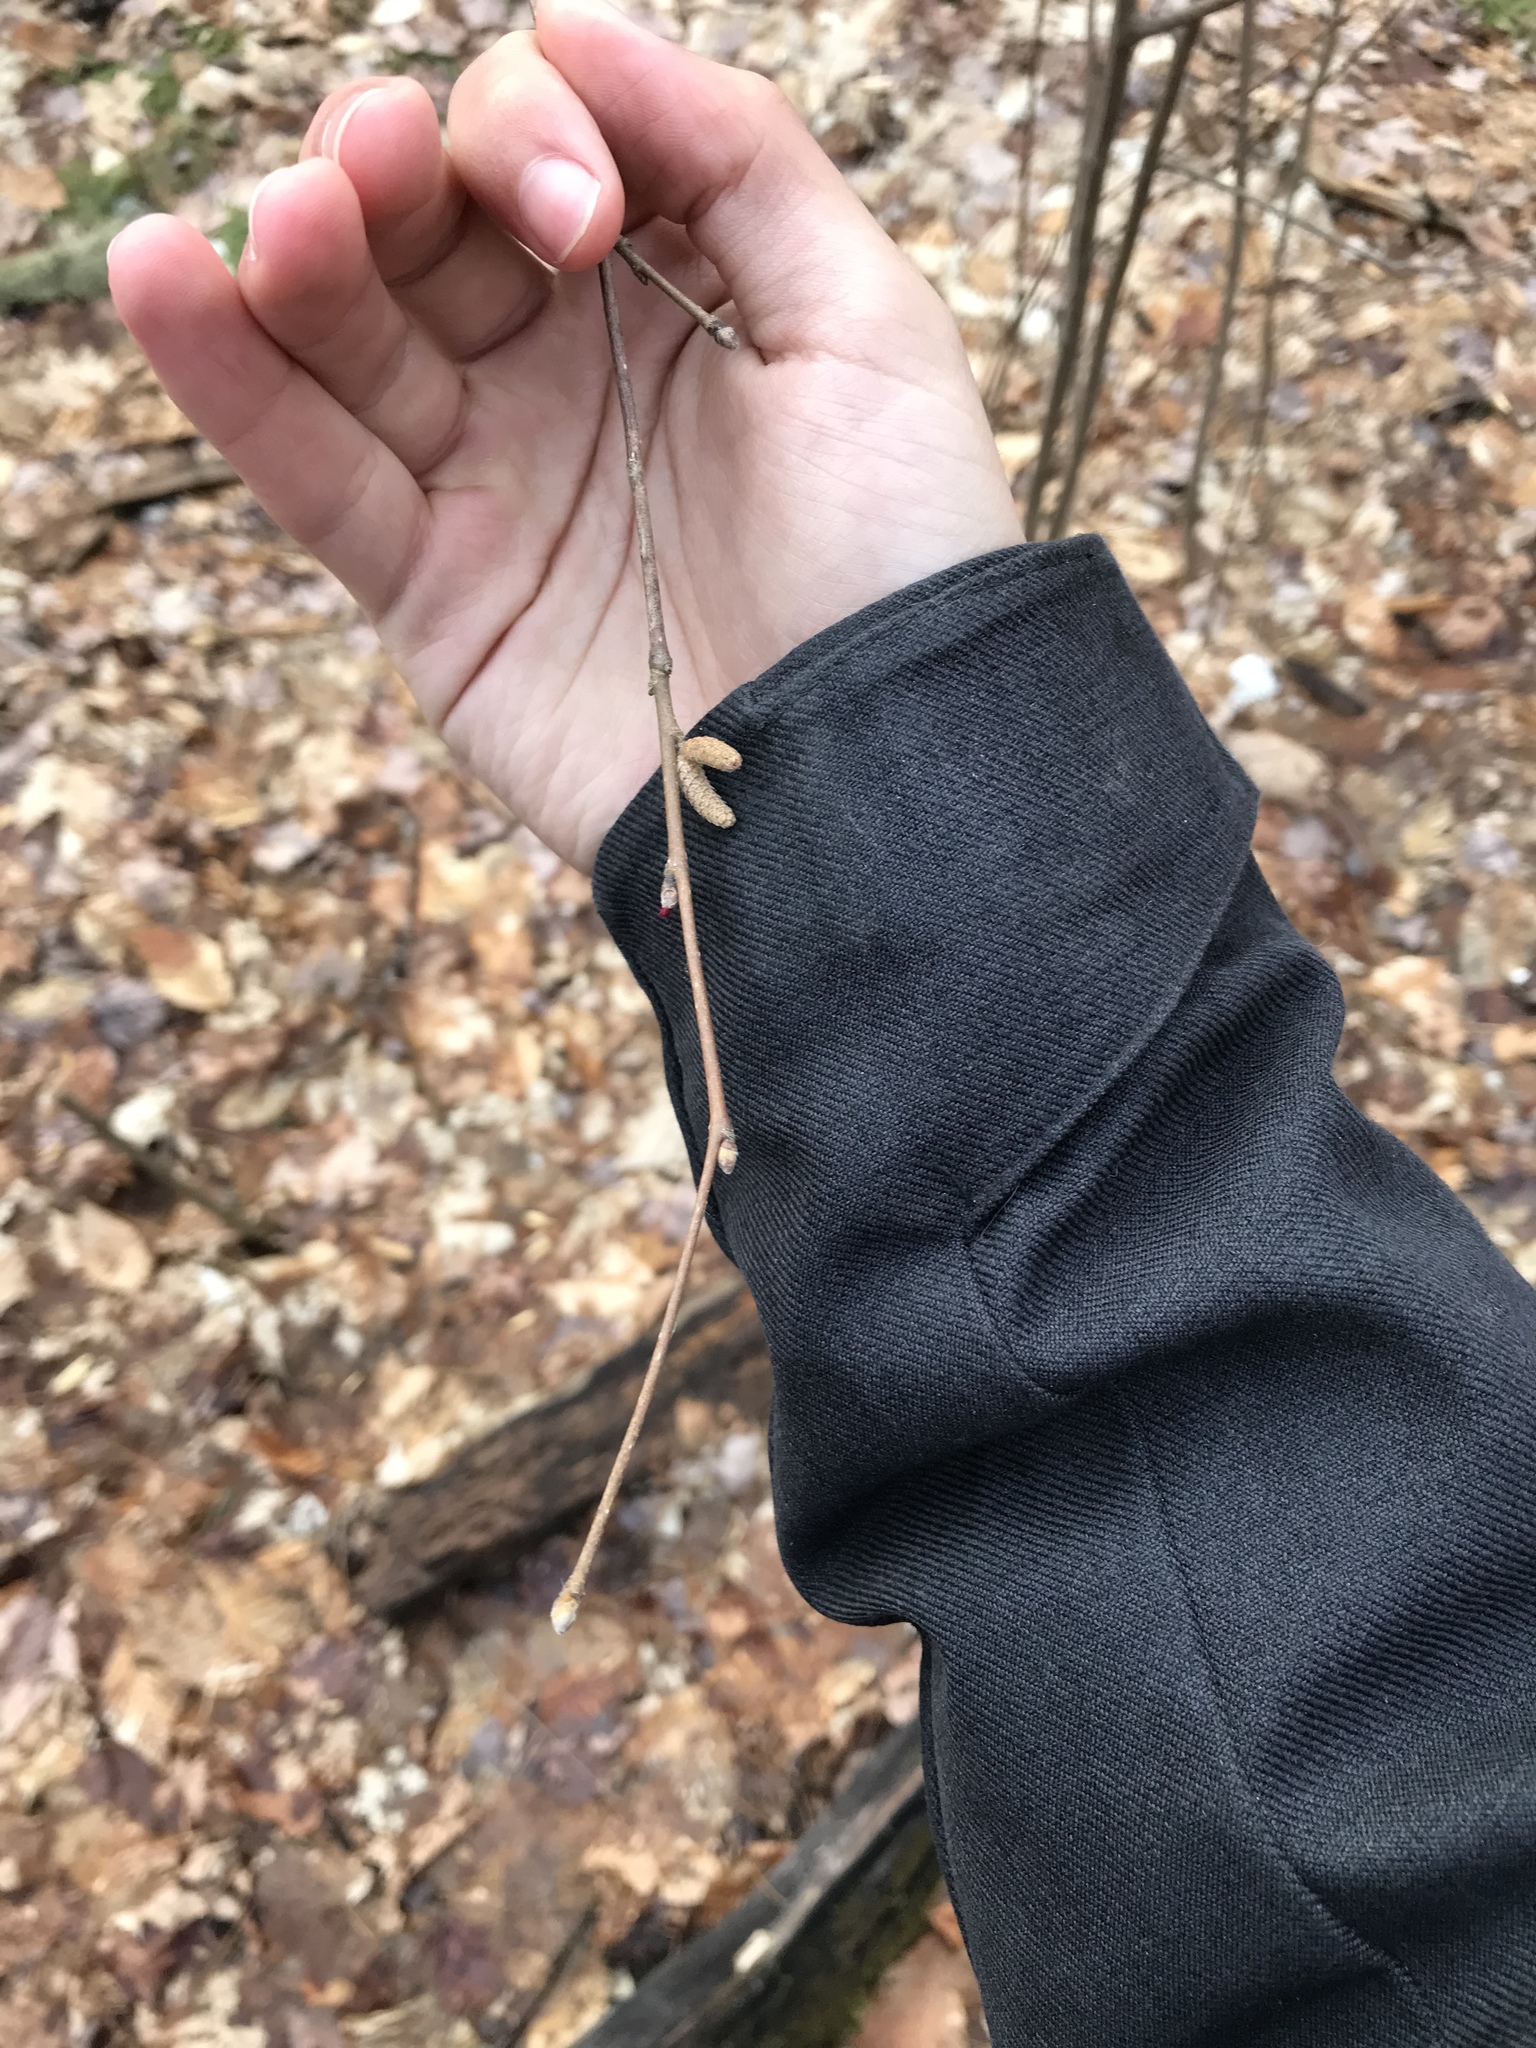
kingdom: Plantae
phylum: Tracheophyta
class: Magnoliopsida
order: Fagales
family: Betulaceae
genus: Corylus
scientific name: Corylus cornuta
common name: Beaked hazel
